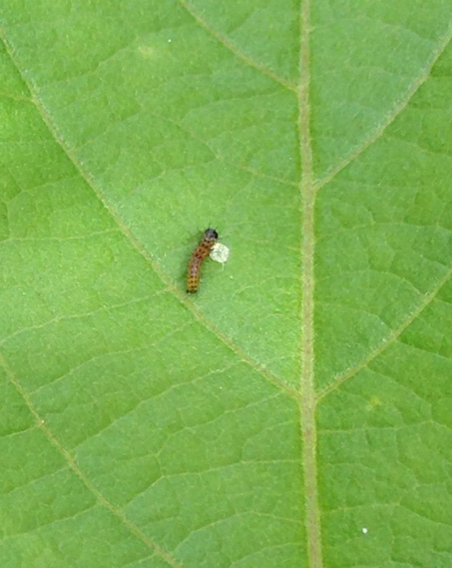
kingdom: Animalia
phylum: Arthropoda
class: Insecta
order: Lepidoptera
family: Nymphalidae
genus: Dione
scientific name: Dione vanillae
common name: Gulf fritillary
